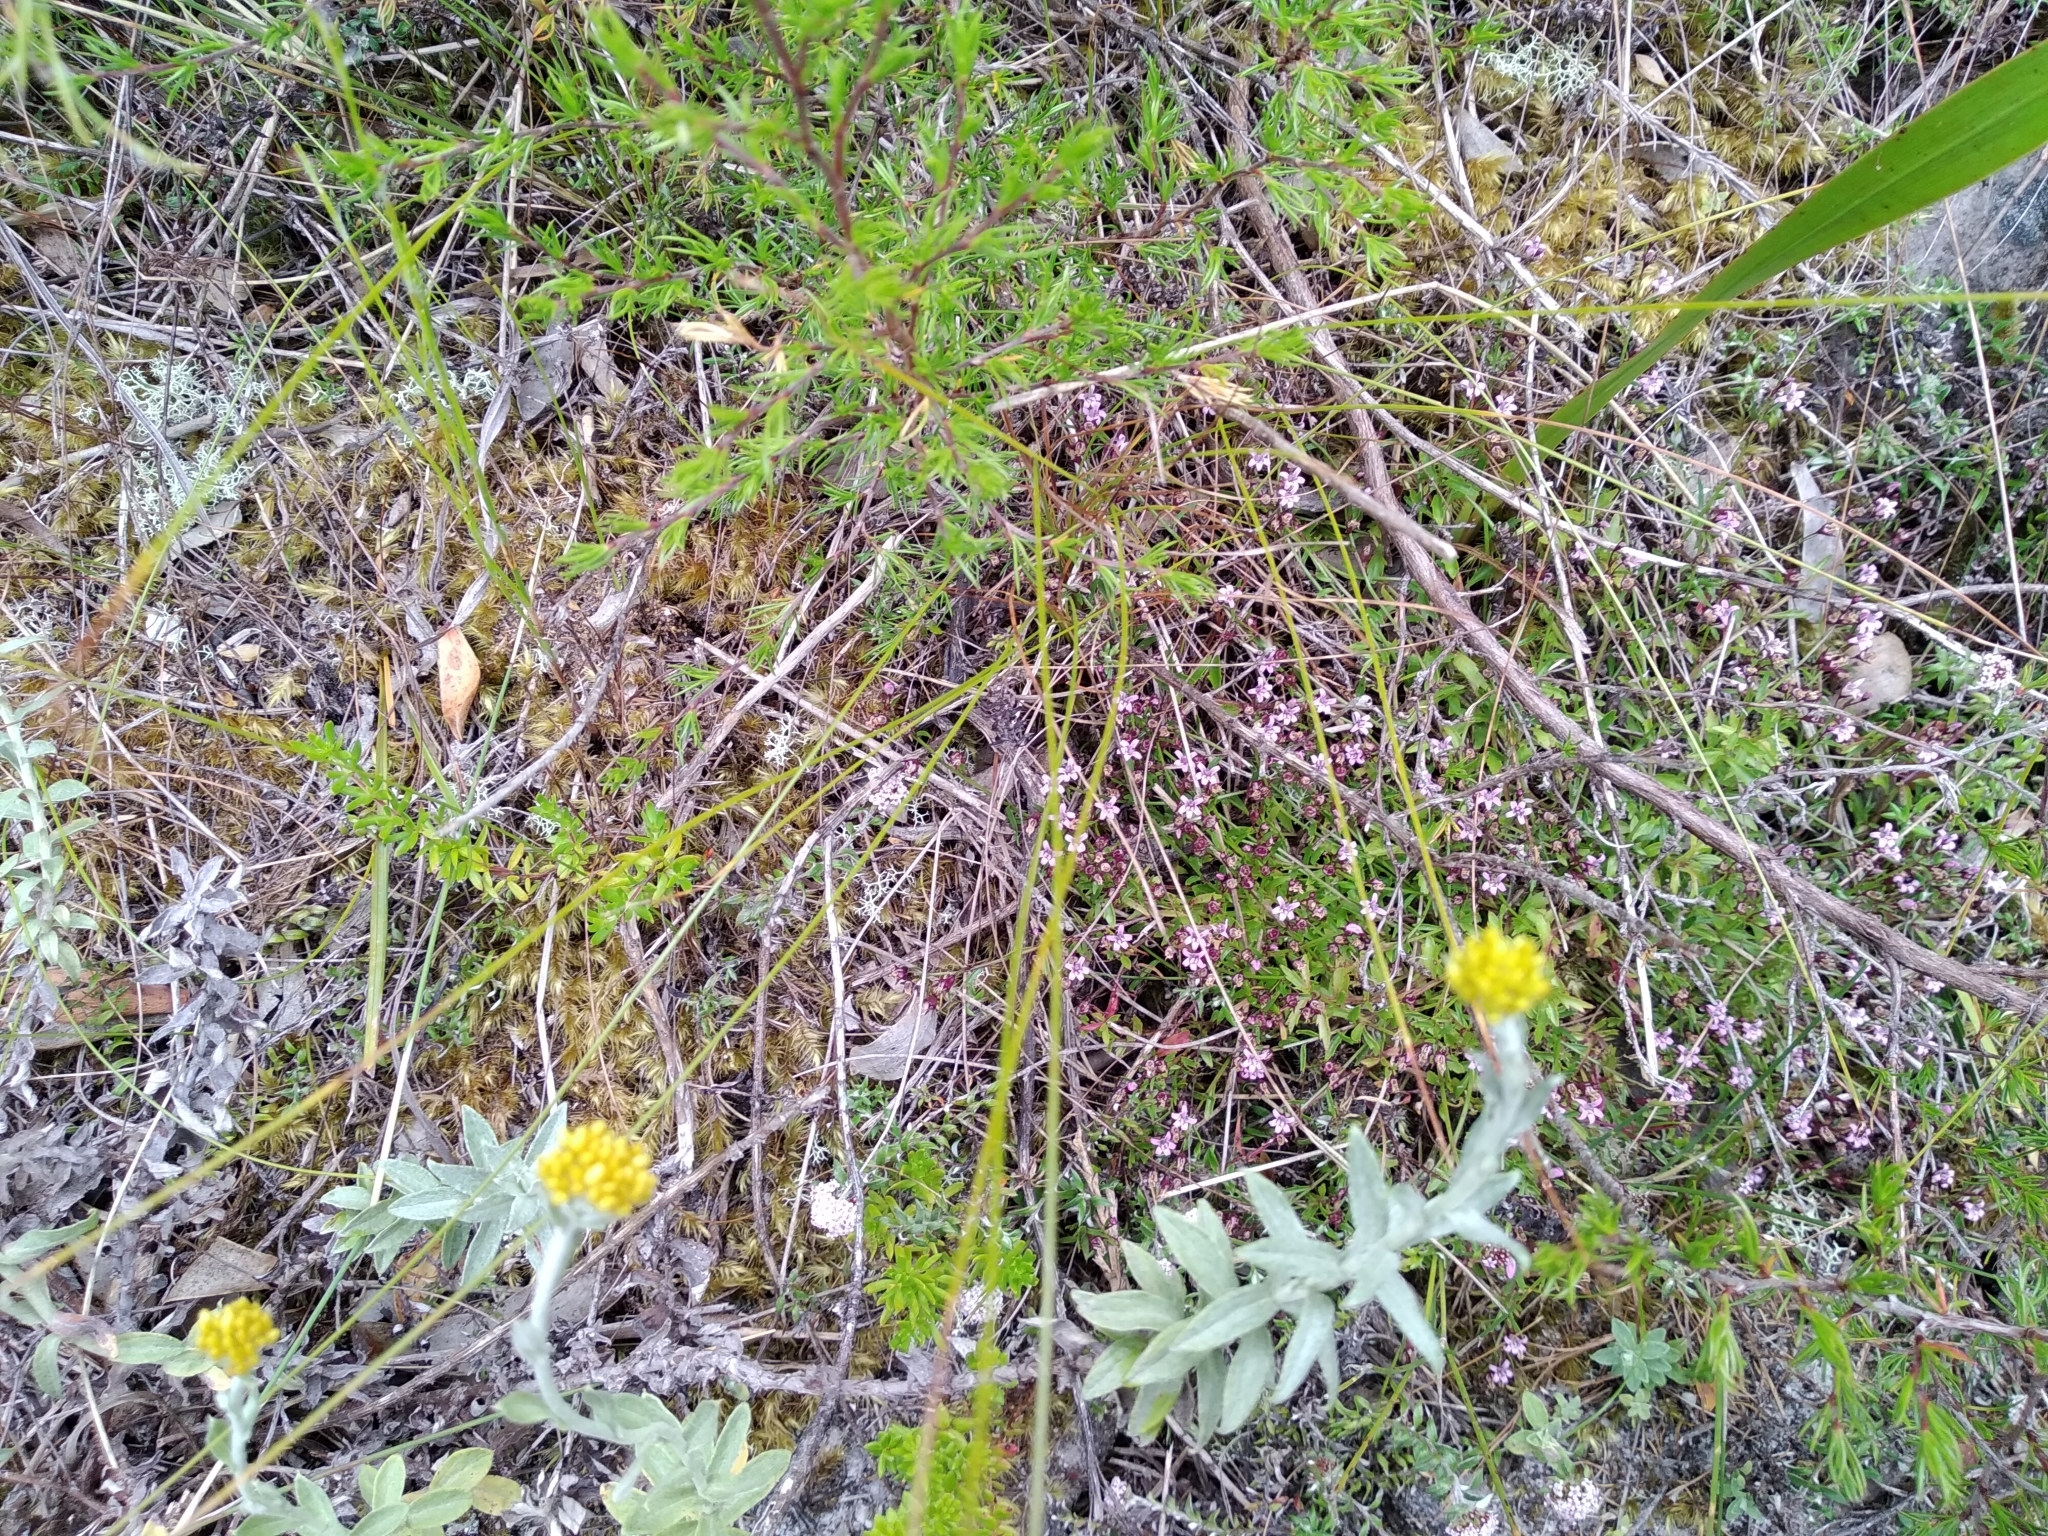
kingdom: Plantae
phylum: Tracheophyta
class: Magnoliopsida
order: Asterales
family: Campanulaceae
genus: Lobelia
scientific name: Lobelia eckloniana
